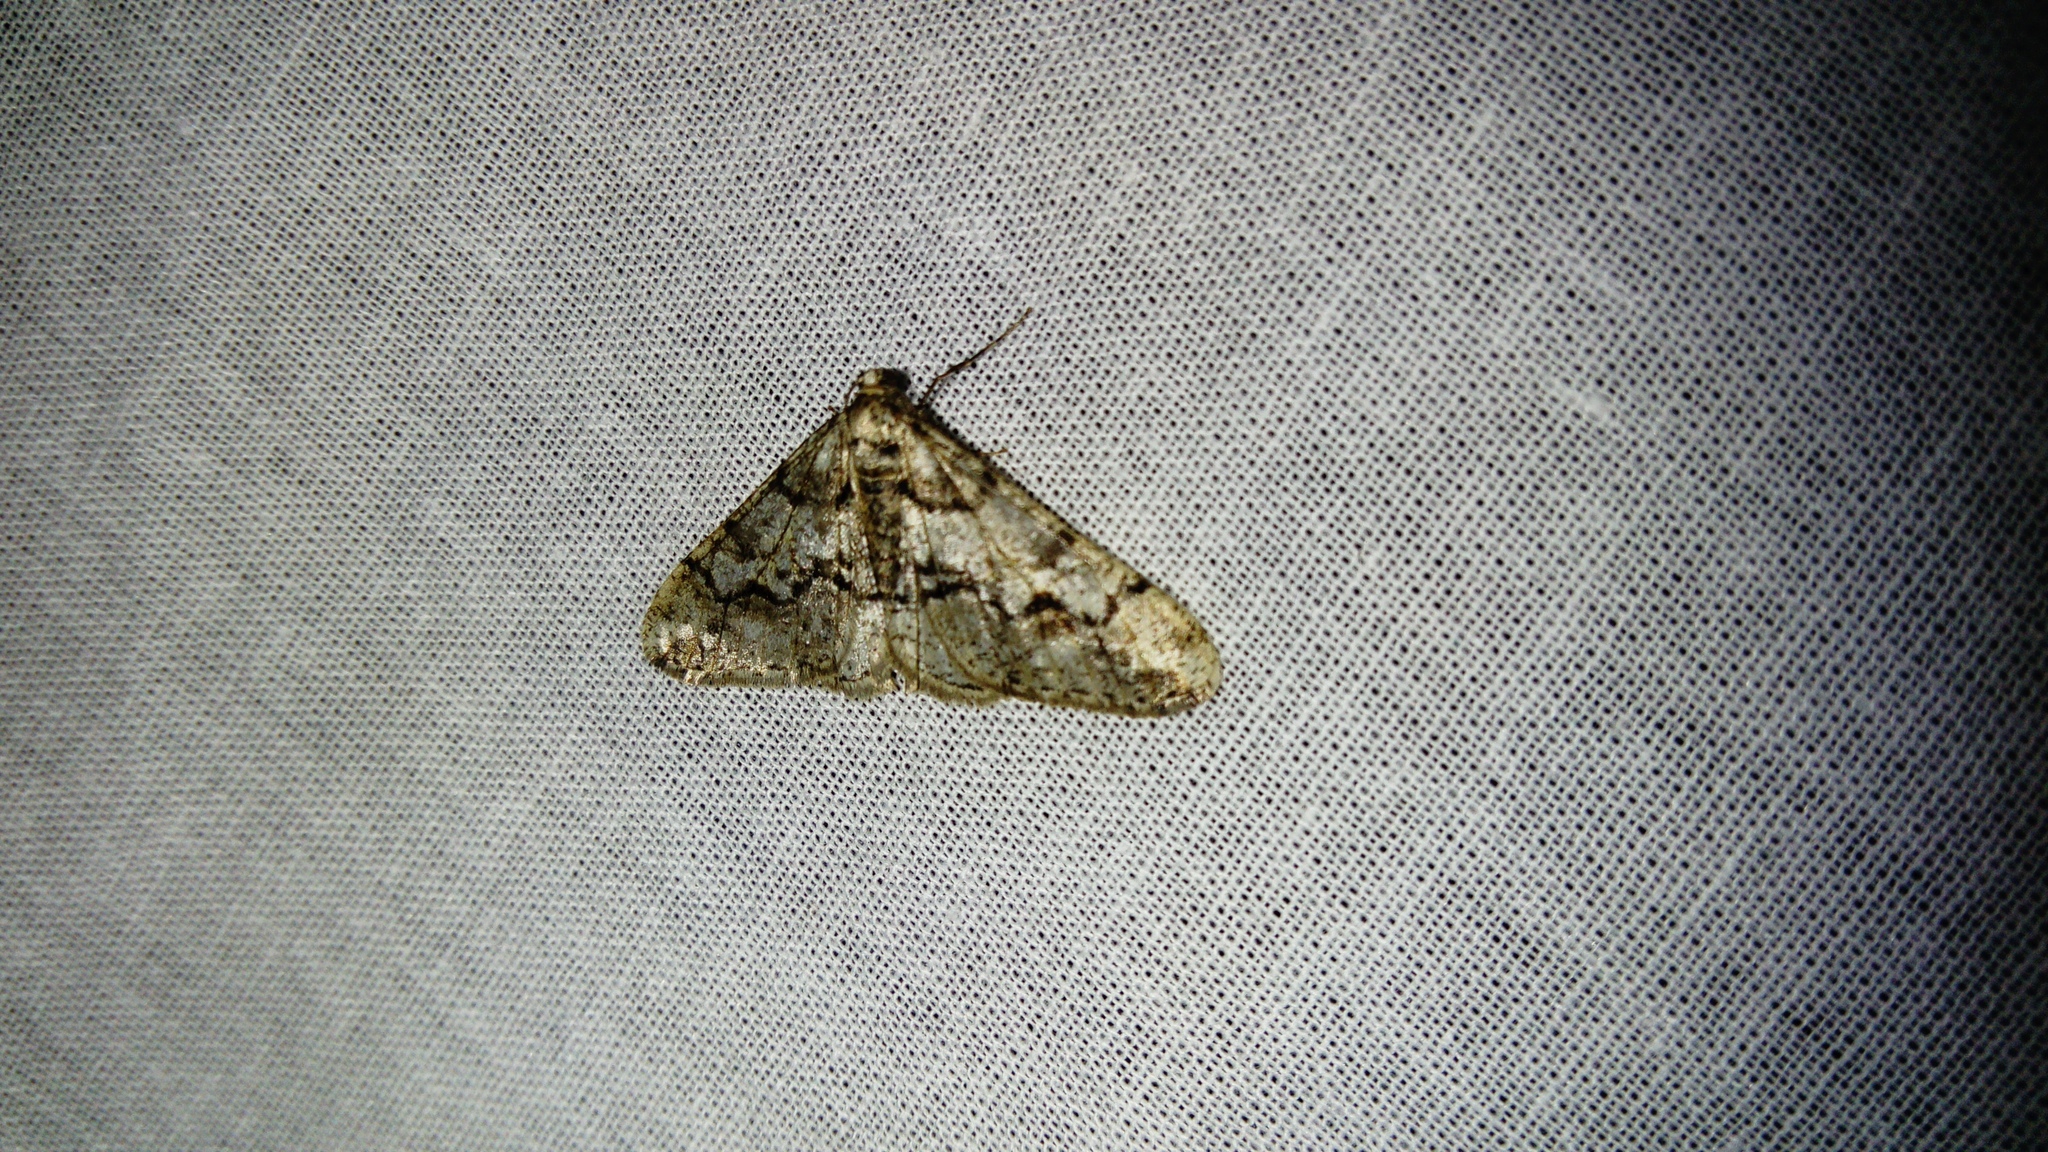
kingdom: Animalia
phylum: Arthropoda
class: Insecta
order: Lepidoptera
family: Geometridae
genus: Agriopis
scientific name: Agriopis leucophaearia
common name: Spring usher
